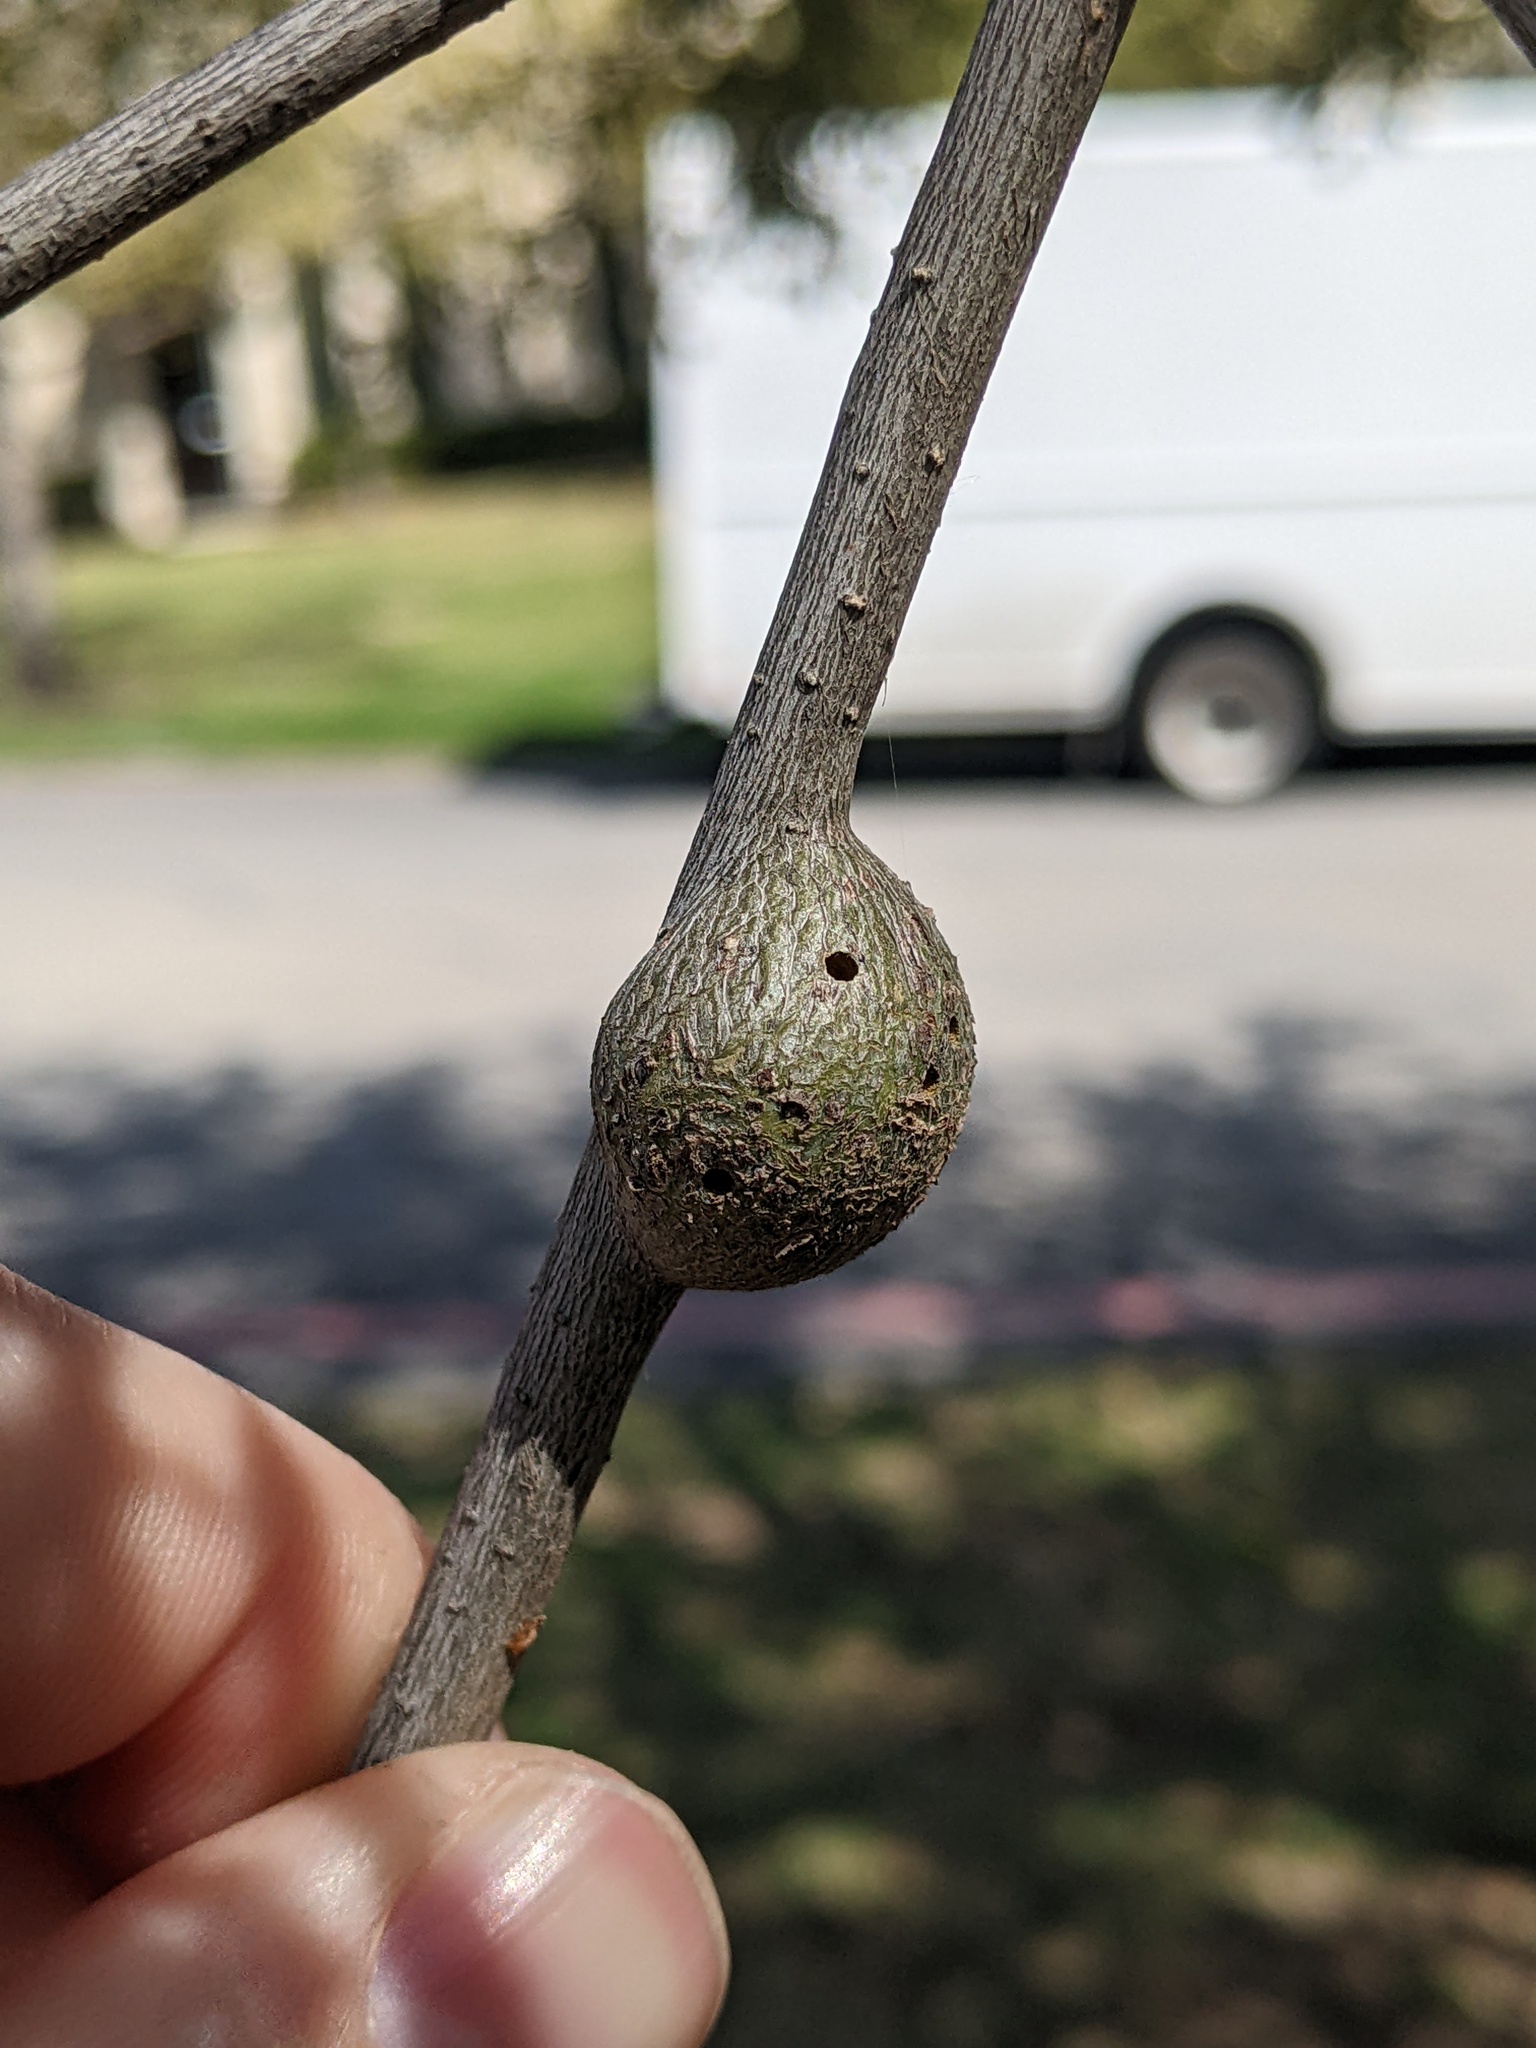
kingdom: Animalia
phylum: Arthropoda
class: Insecta
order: Hymenoptera
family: Cynipidae
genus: Callirhytis
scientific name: Callirhytis
